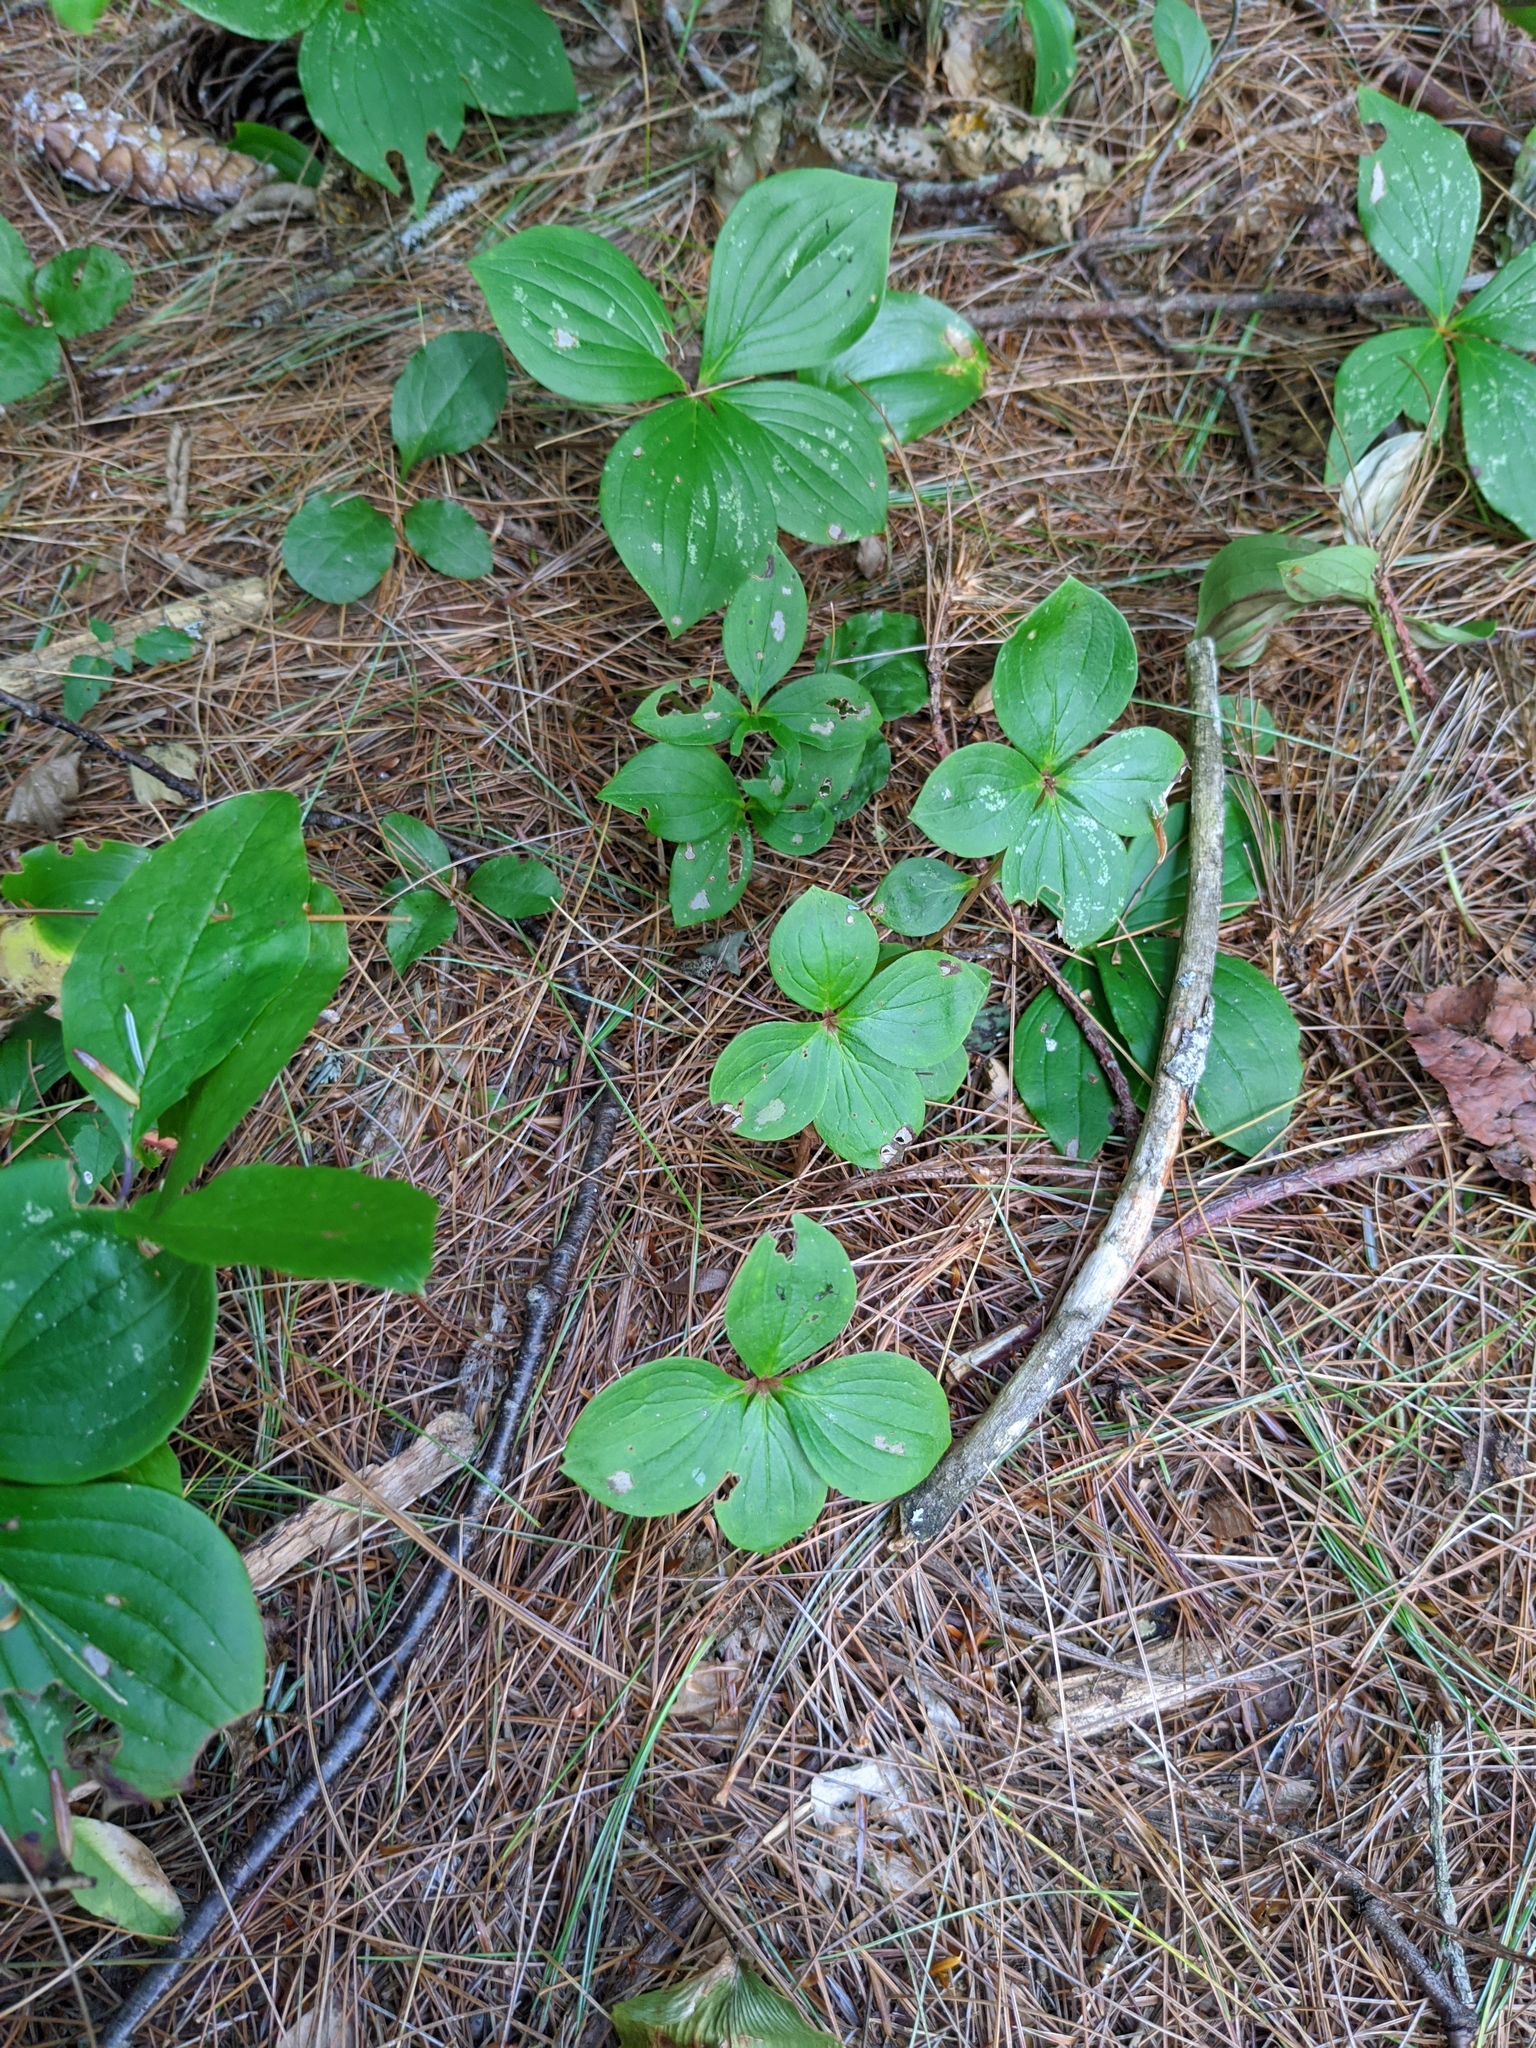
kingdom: Plantae
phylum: Tracheophyta
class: Magnoliopsida
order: Cornales
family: Cornaceae
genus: Cornus
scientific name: Cornus canadensis
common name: Creeping dogwood
